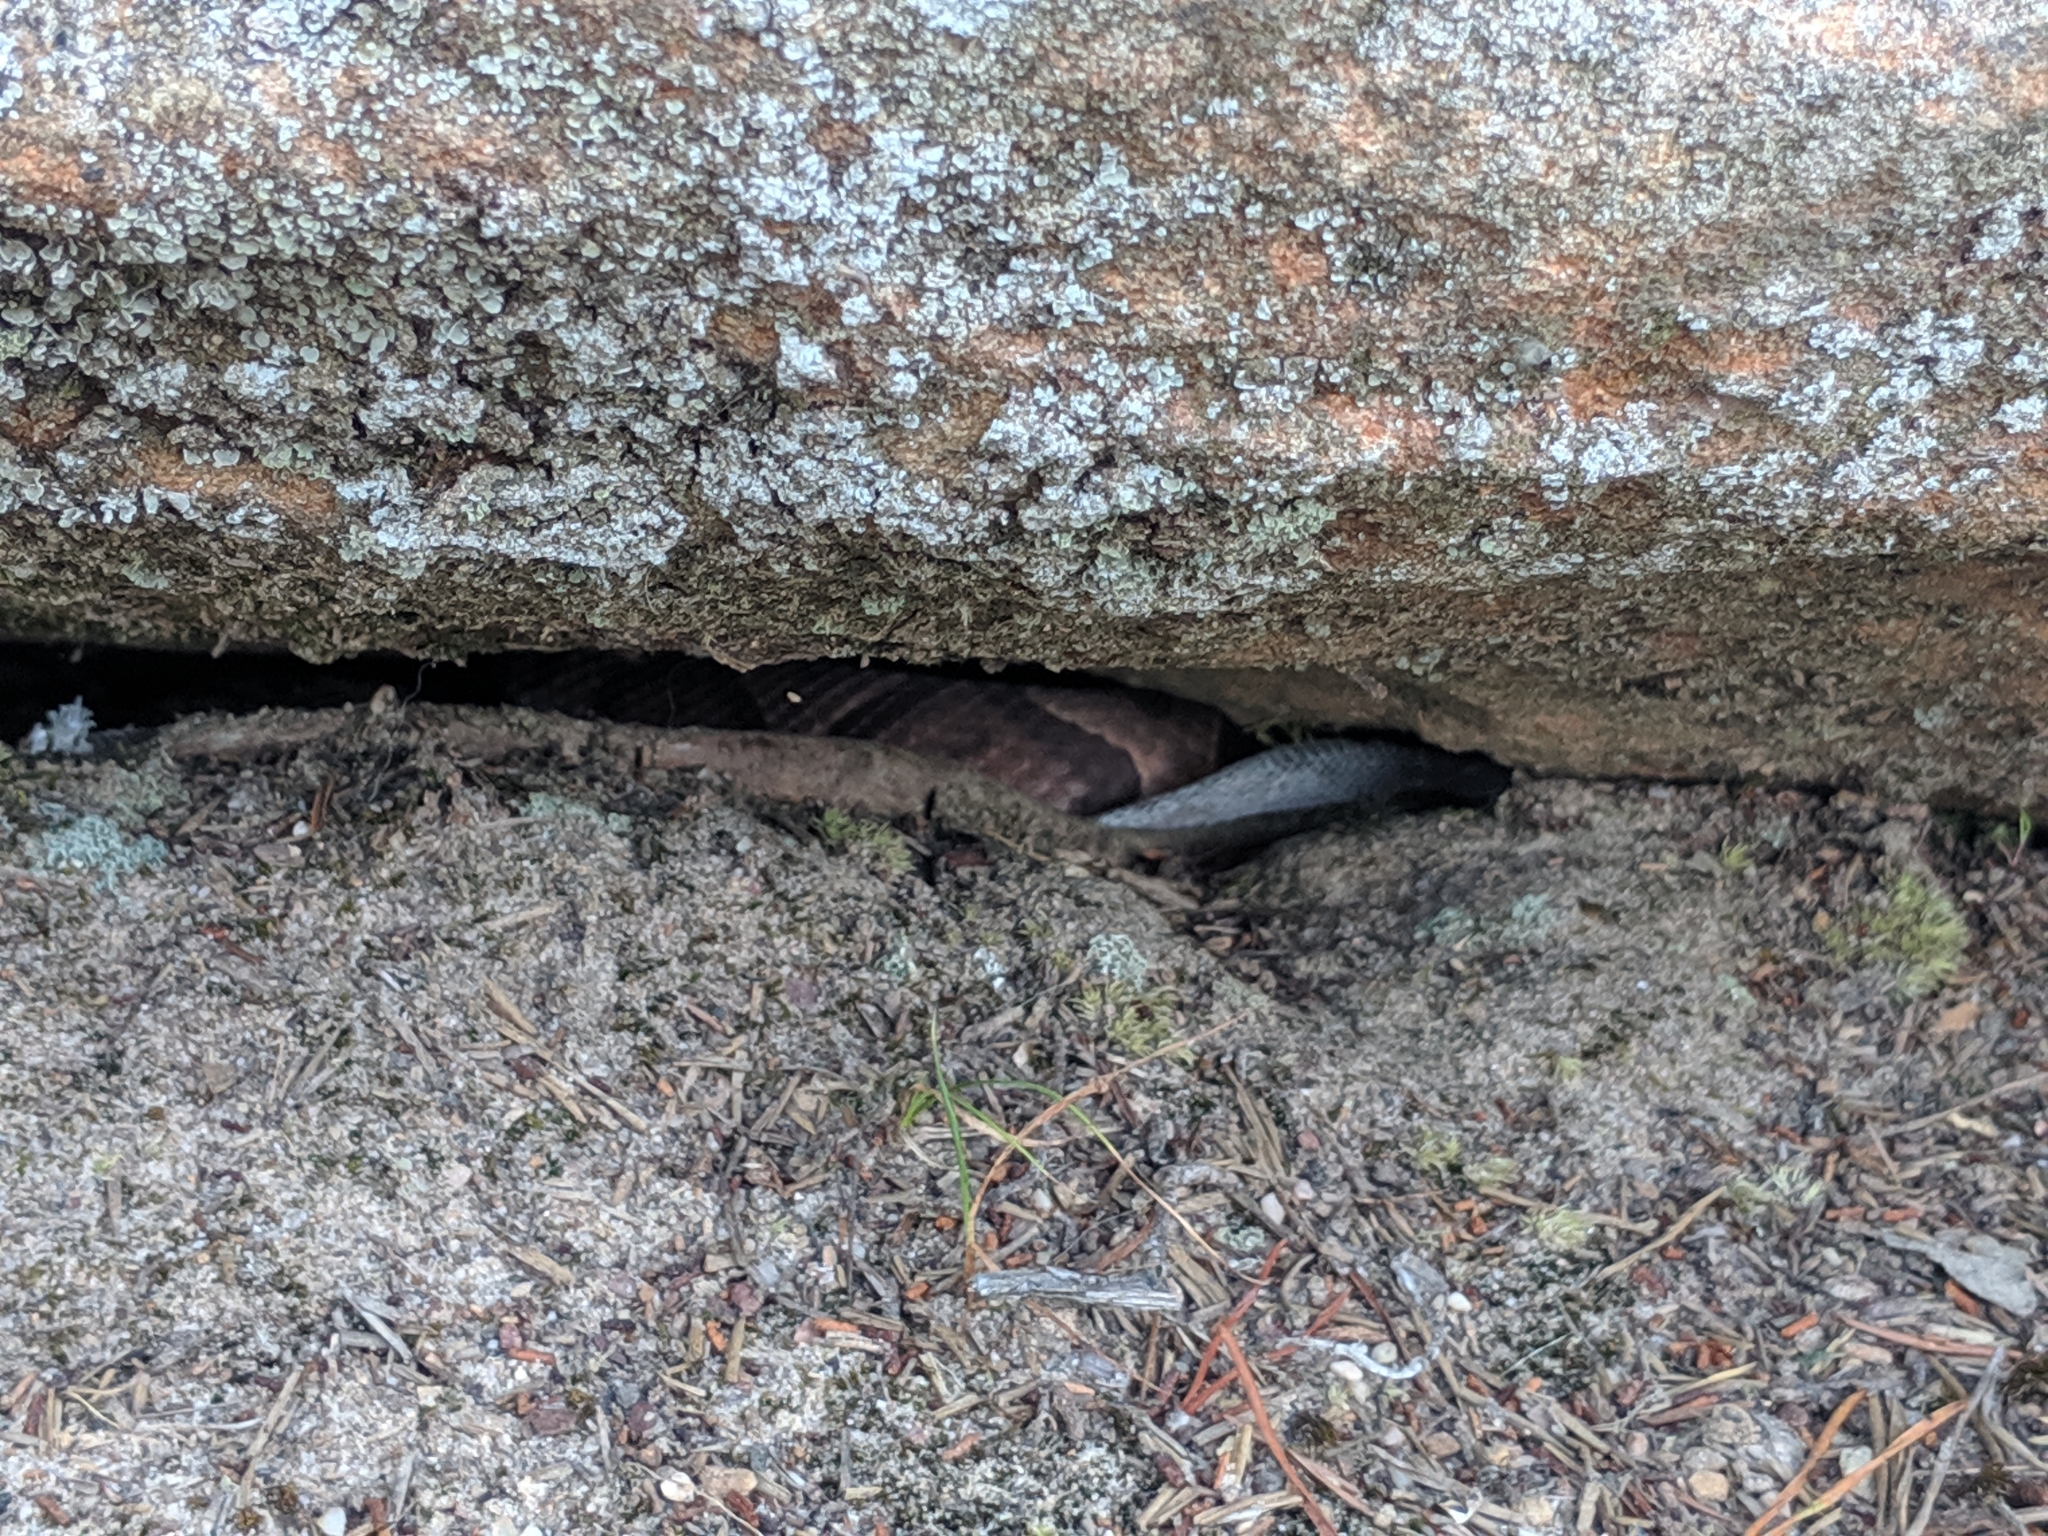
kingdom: Animalia
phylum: Chordata
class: Squamata
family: Viperidae
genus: Agkistrodon
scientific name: Agkistrodon contortrix
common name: Northern copperhead
